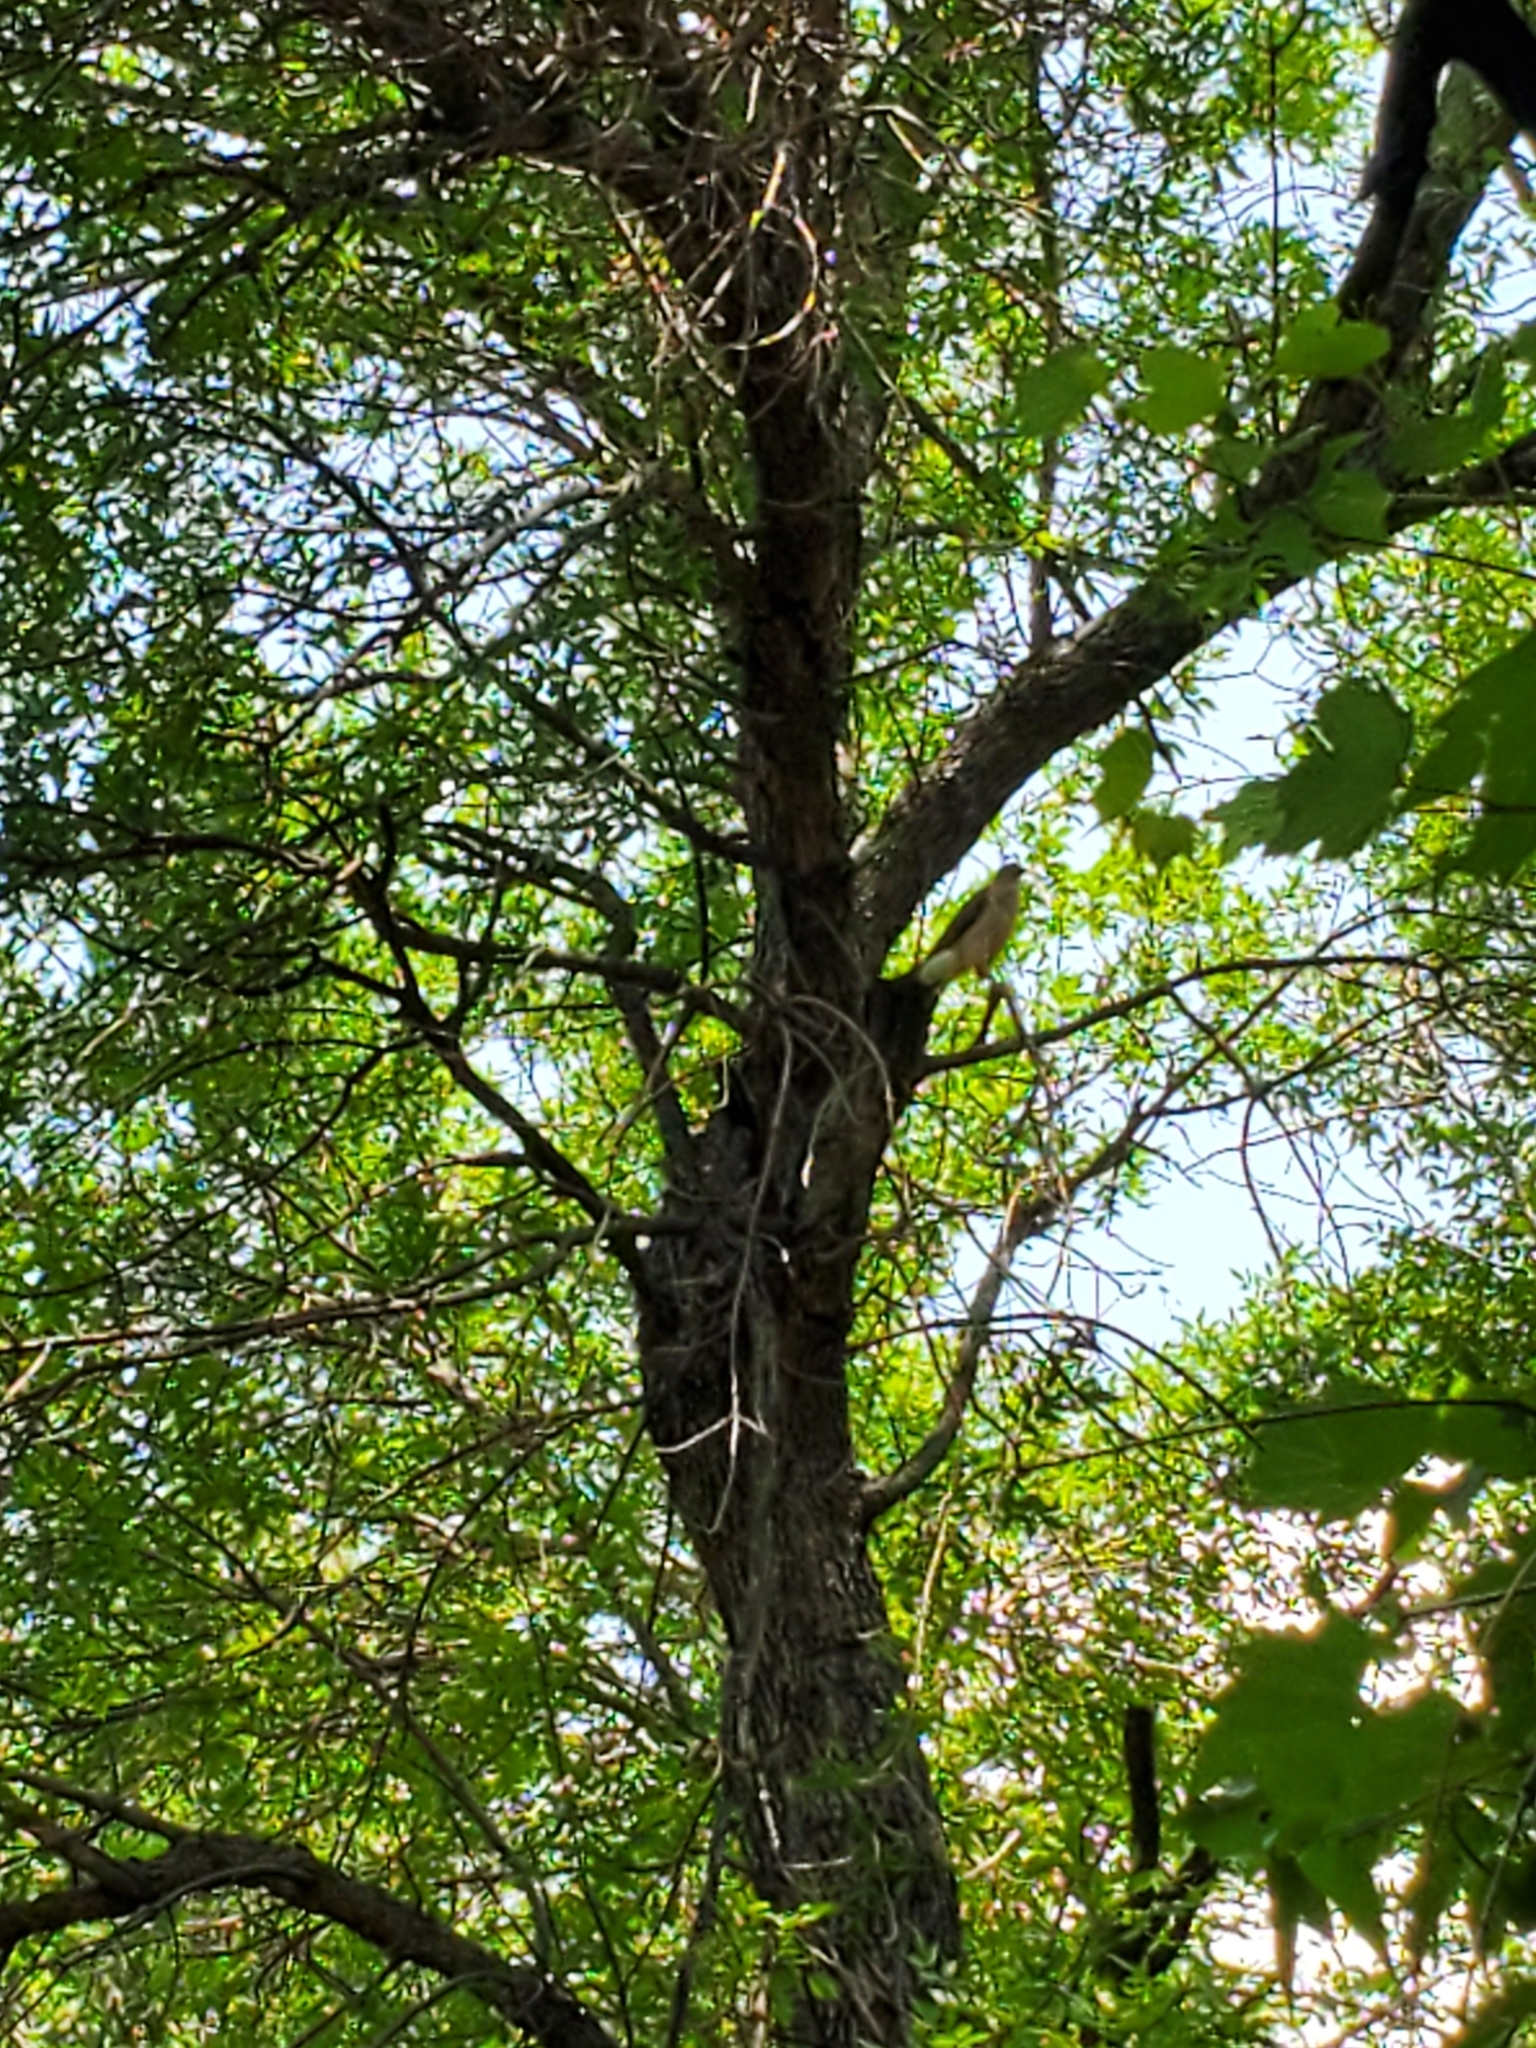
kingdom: Animalia
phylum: Chordata
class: Aves
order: Accipitriformes
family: Accipitridae
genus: Accipiter
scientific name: Accipiter cooperii
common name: Cooper's hawk
